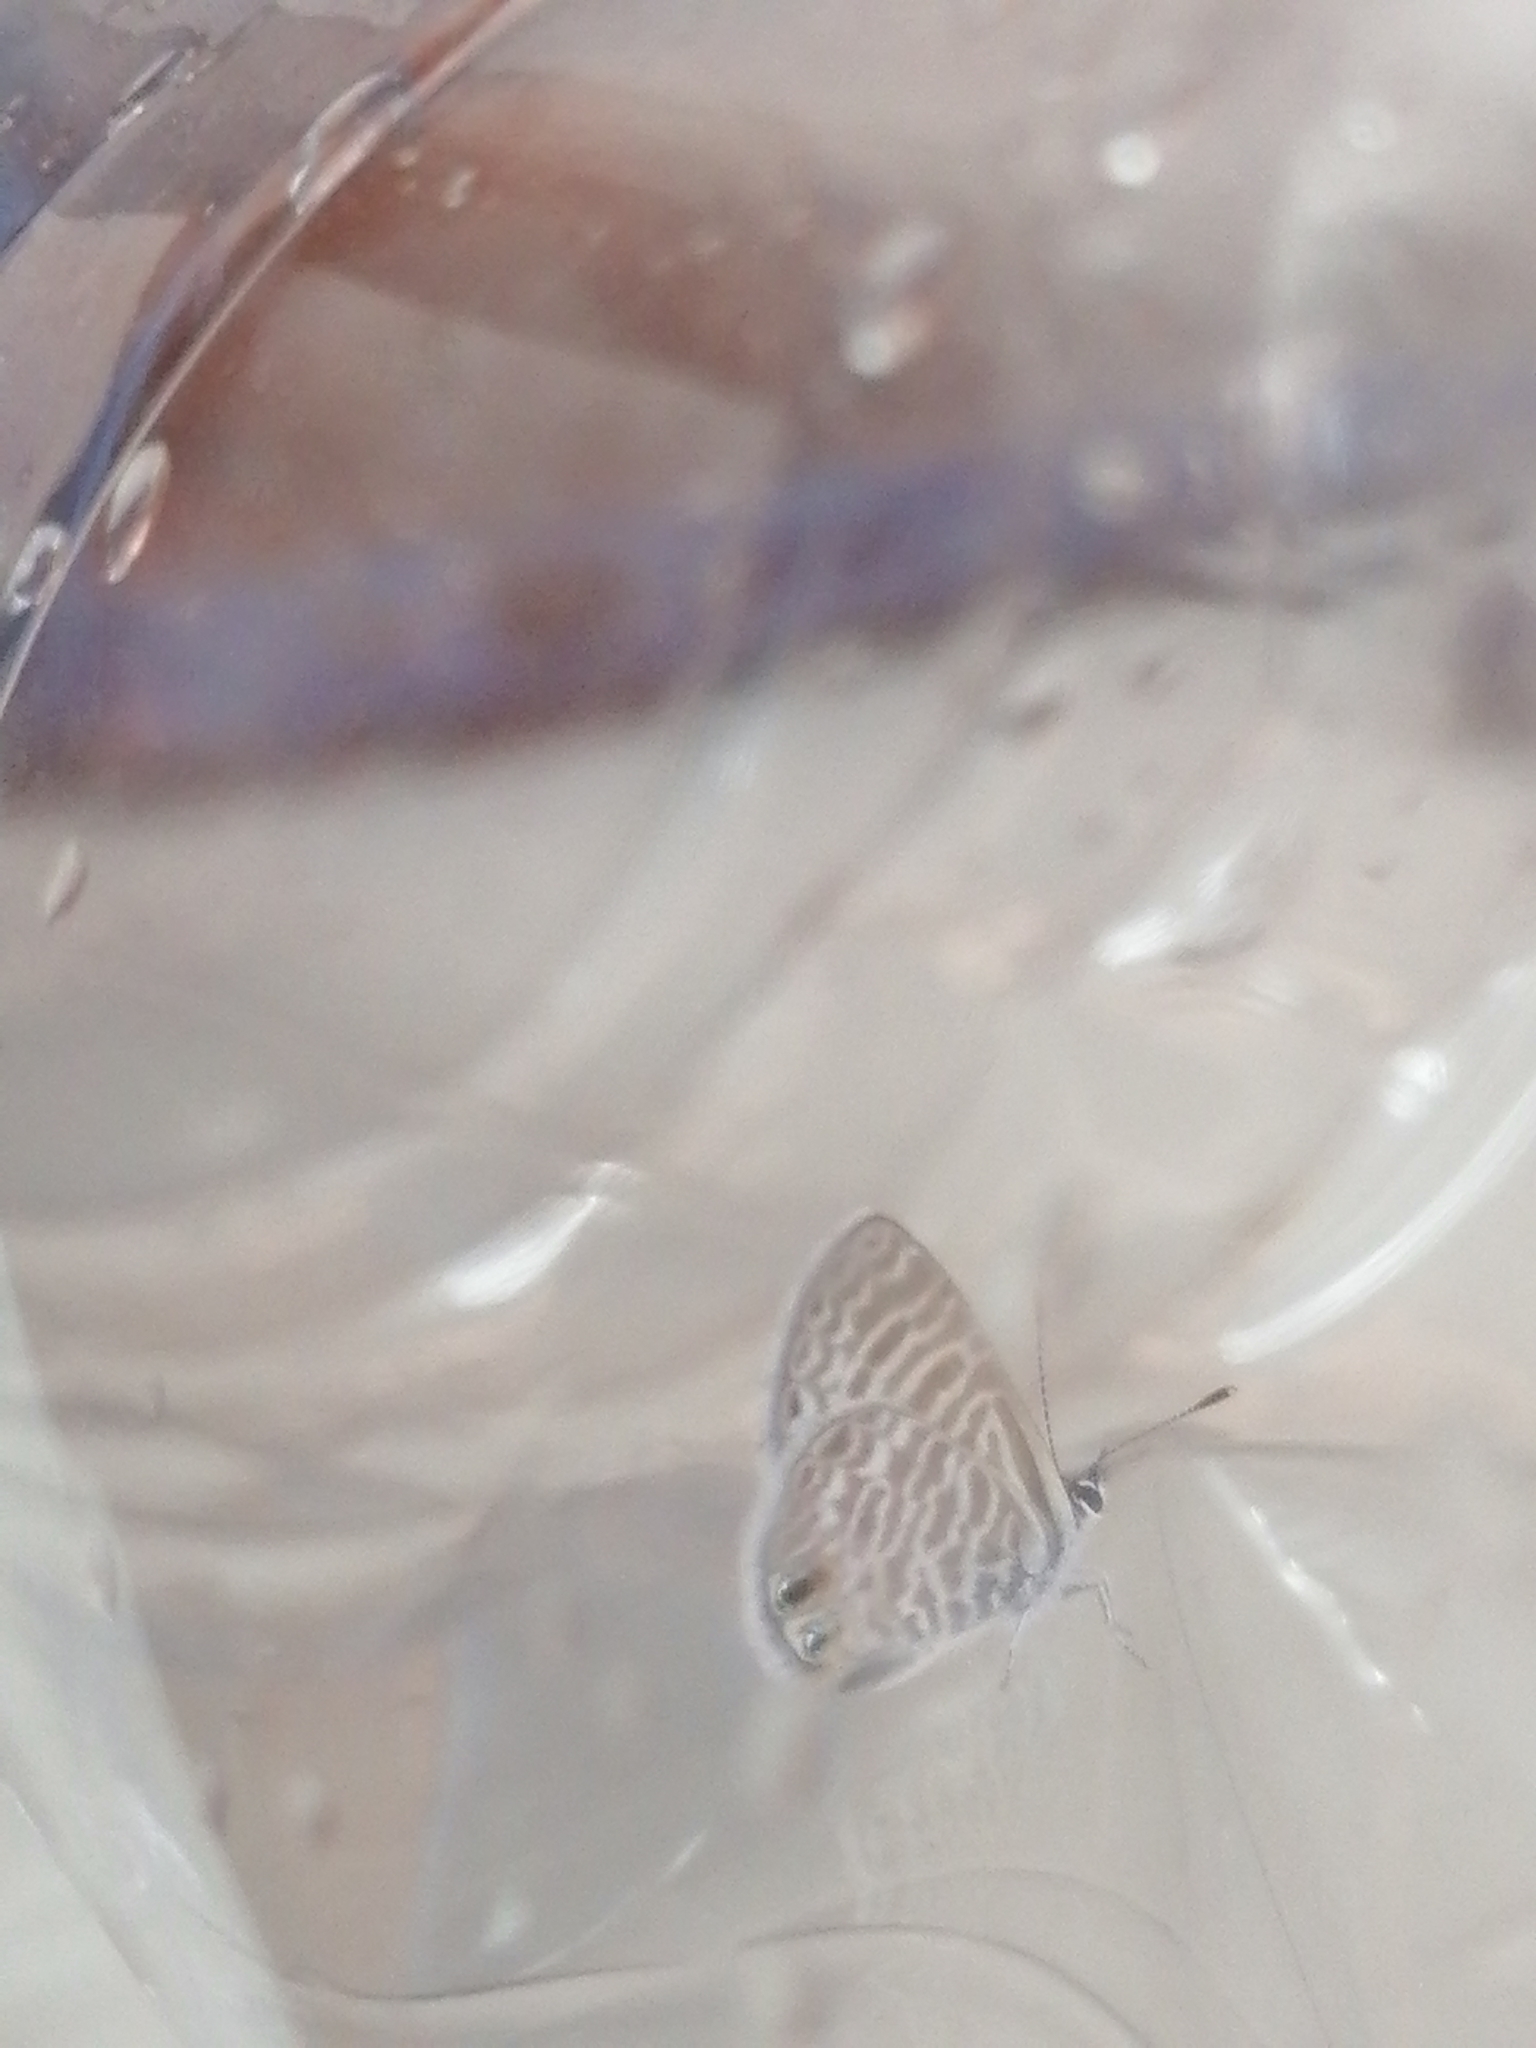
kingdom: Animalia
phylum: Arthropoda
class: Insecta
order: Lepidoptera
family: Lycaenidae
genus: Leptotes
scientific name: Leptotes marina
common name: Marine blue
